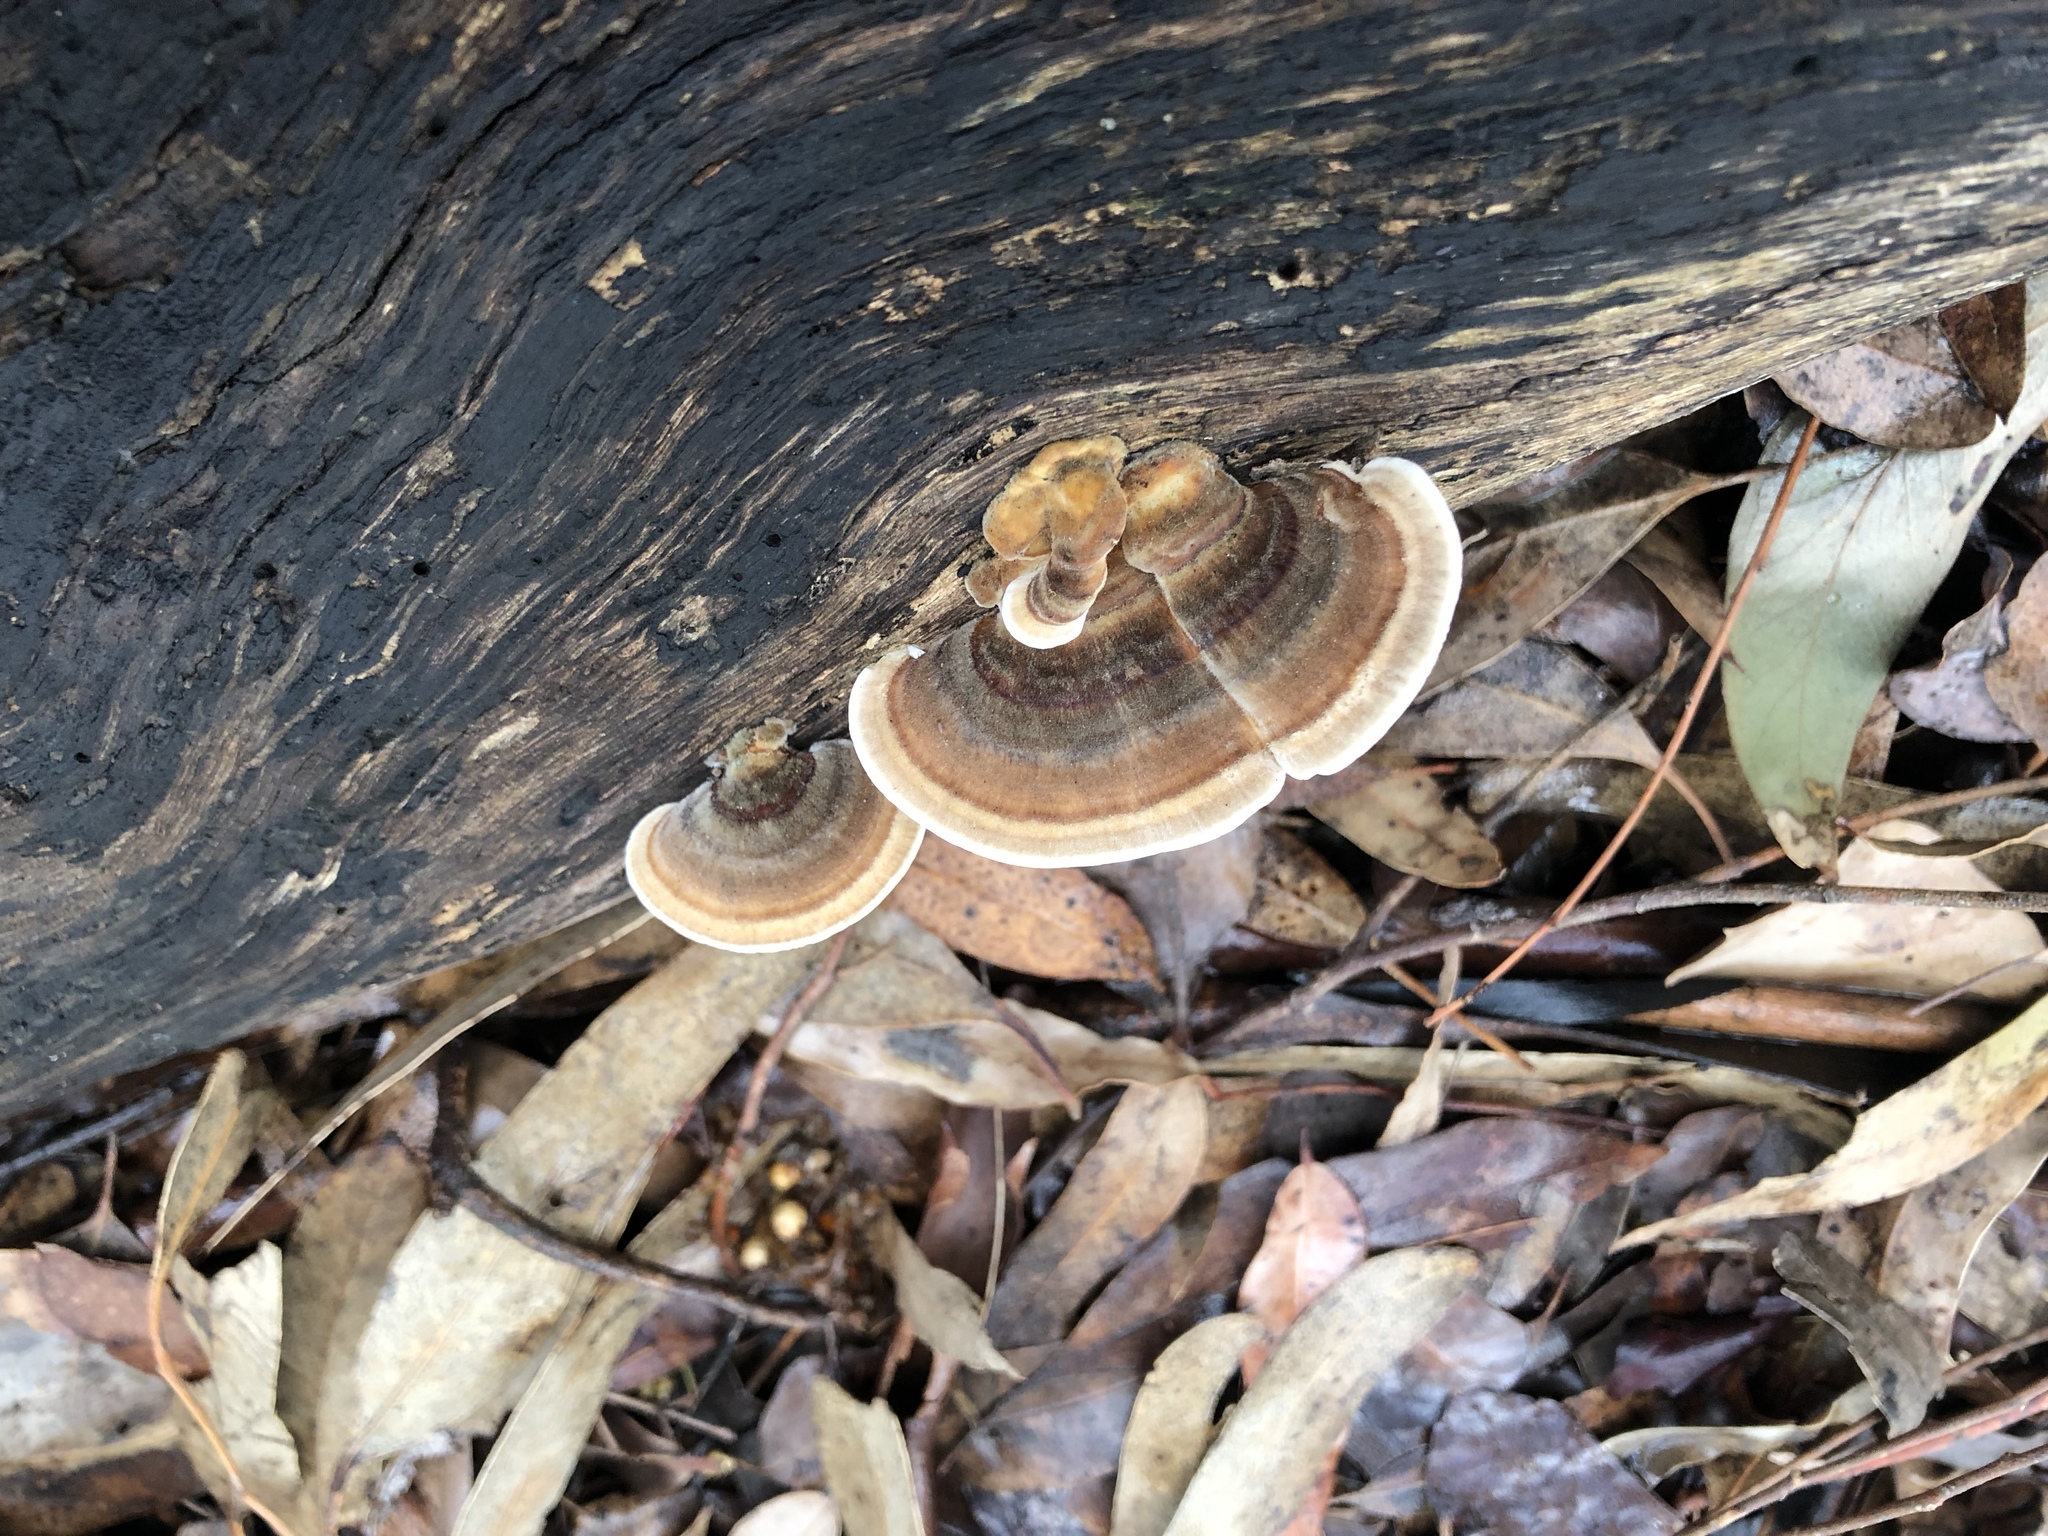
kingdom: Fungi
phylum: Basidiomycota
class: Agaricomycetes
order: Polyporales
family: Polyporaceae
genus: Trametes
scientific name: Trametes versicolor
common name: Turkeytail
